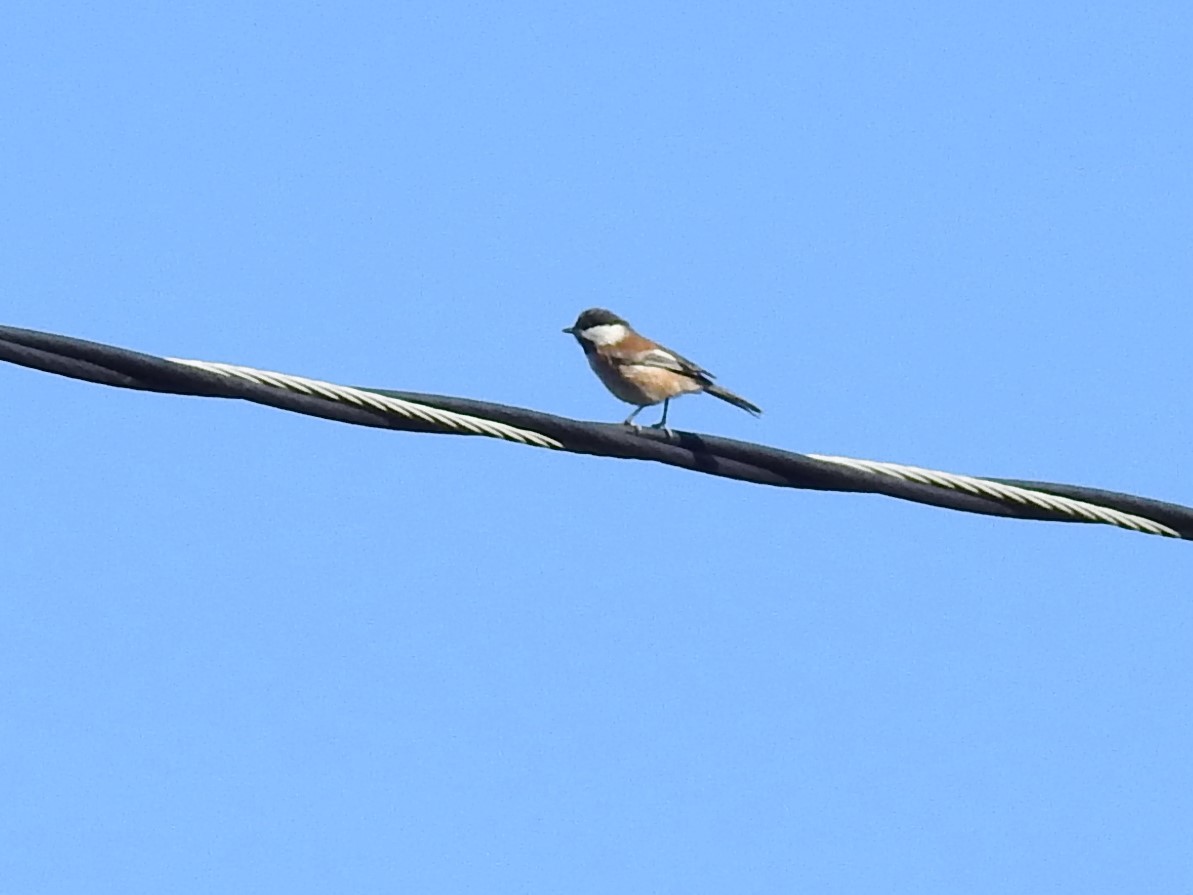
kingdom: Animalia
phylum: Chordata
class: Aves
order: Passeriformes
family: Paridae
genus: Poecile
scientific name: Poecile rufescens
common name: Chestnut-backed chickadee
